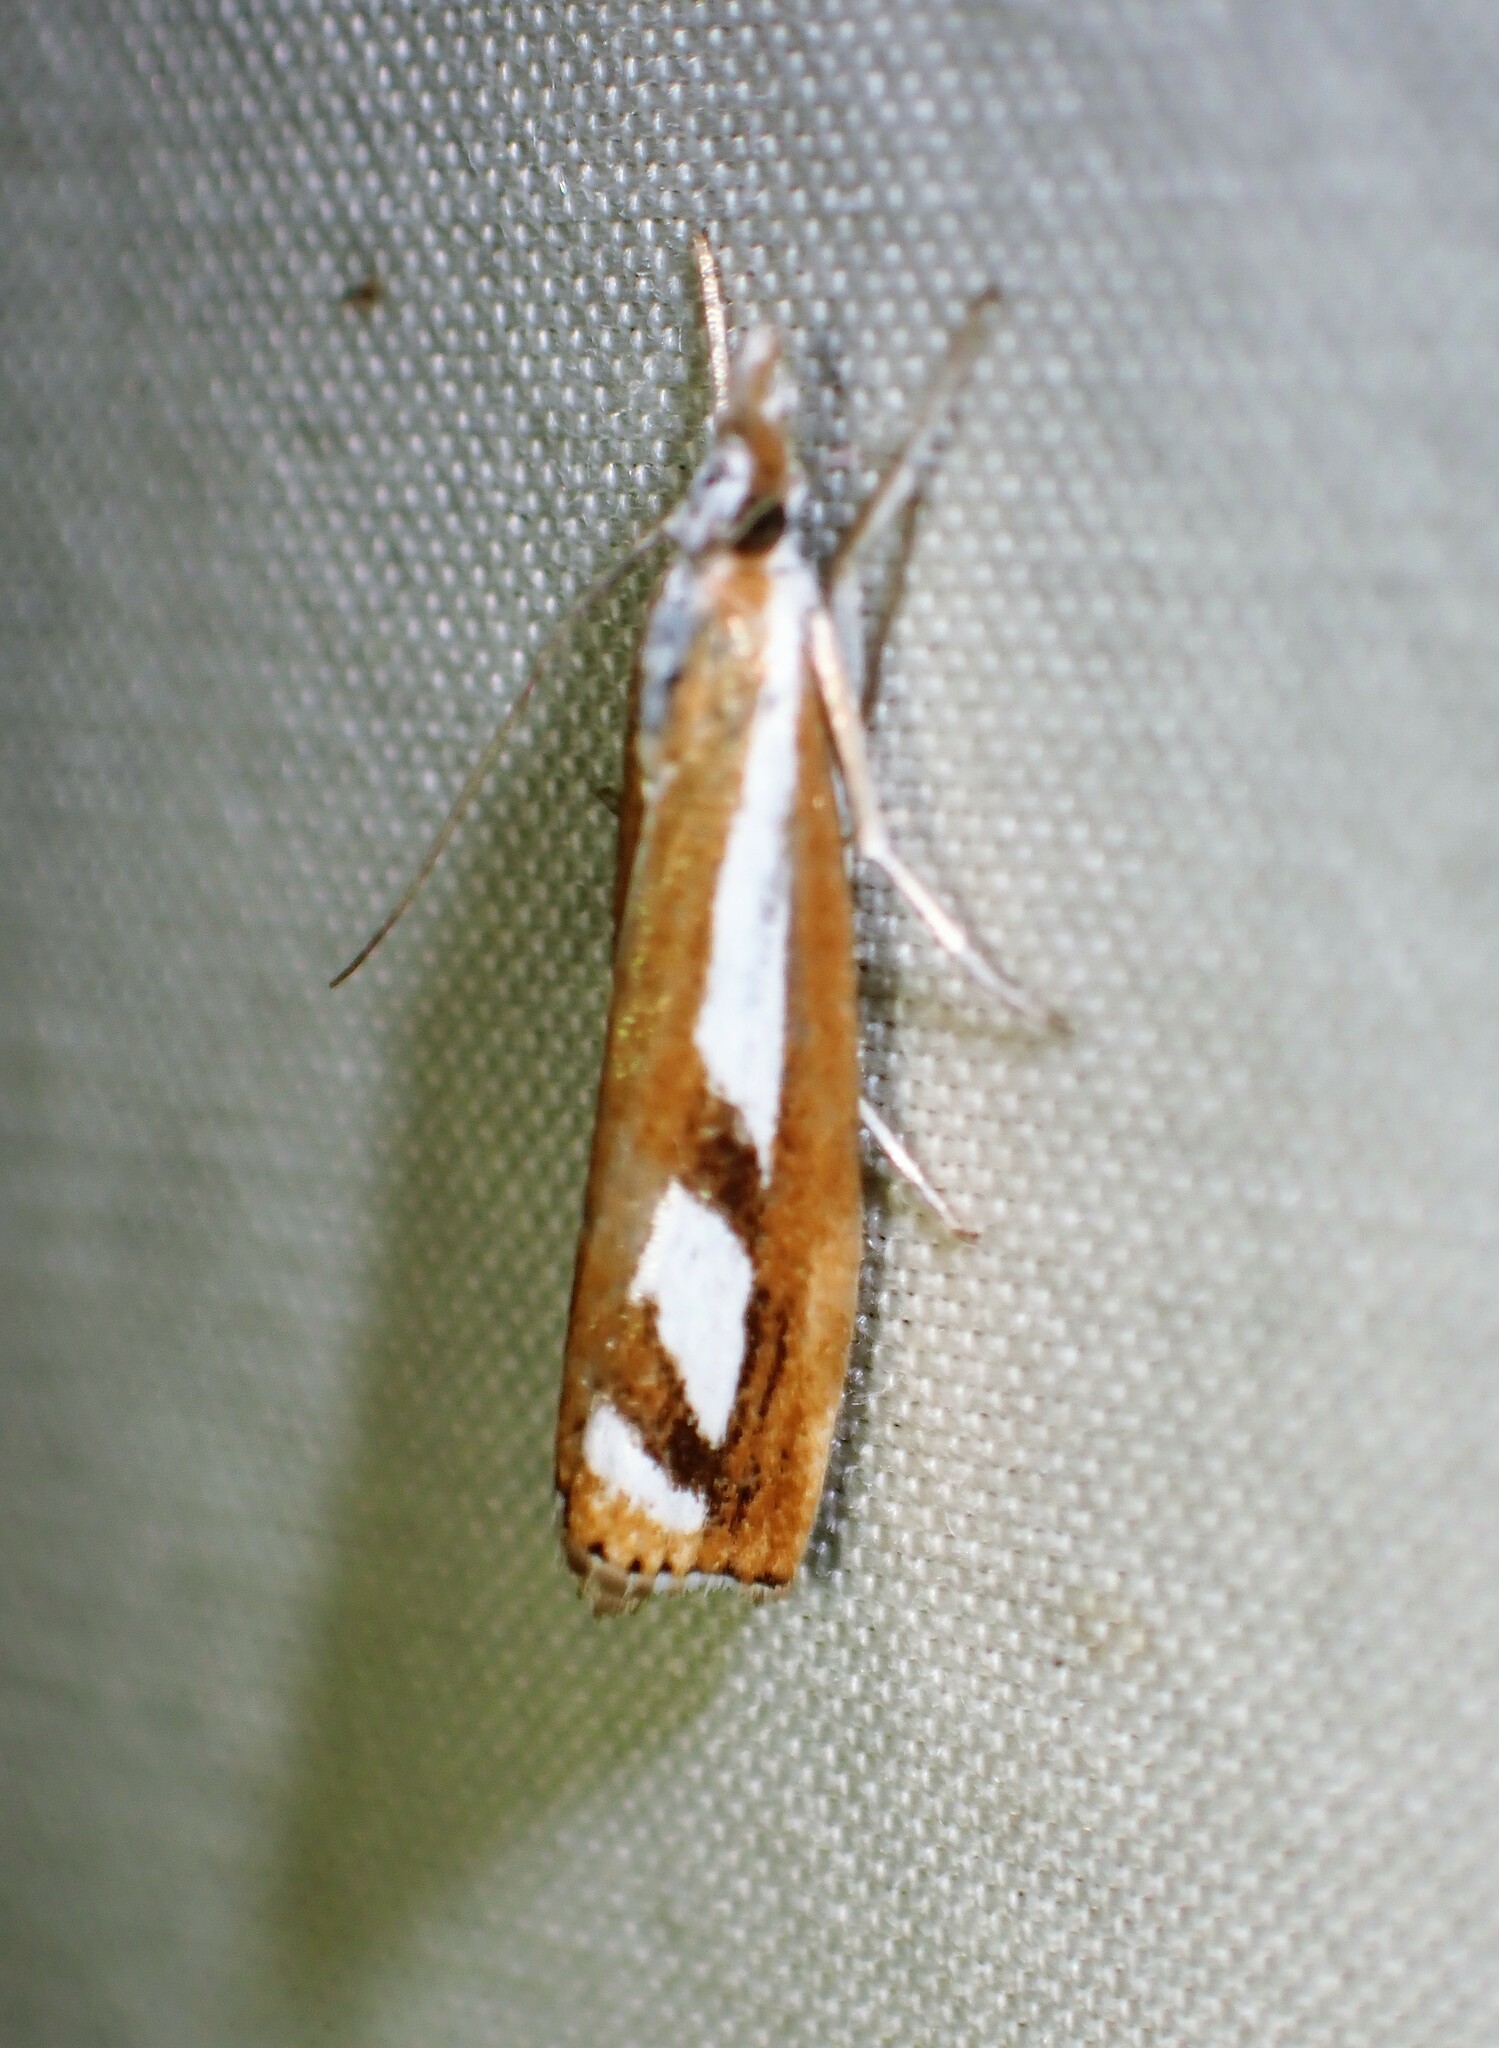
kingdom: Animalia
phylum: Arthropoda
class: Insecta
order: Lepidoptera
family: Crambidae
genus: Catoptria
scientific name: Catoptria latiradiellus
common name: Two-banded catoptria moth
